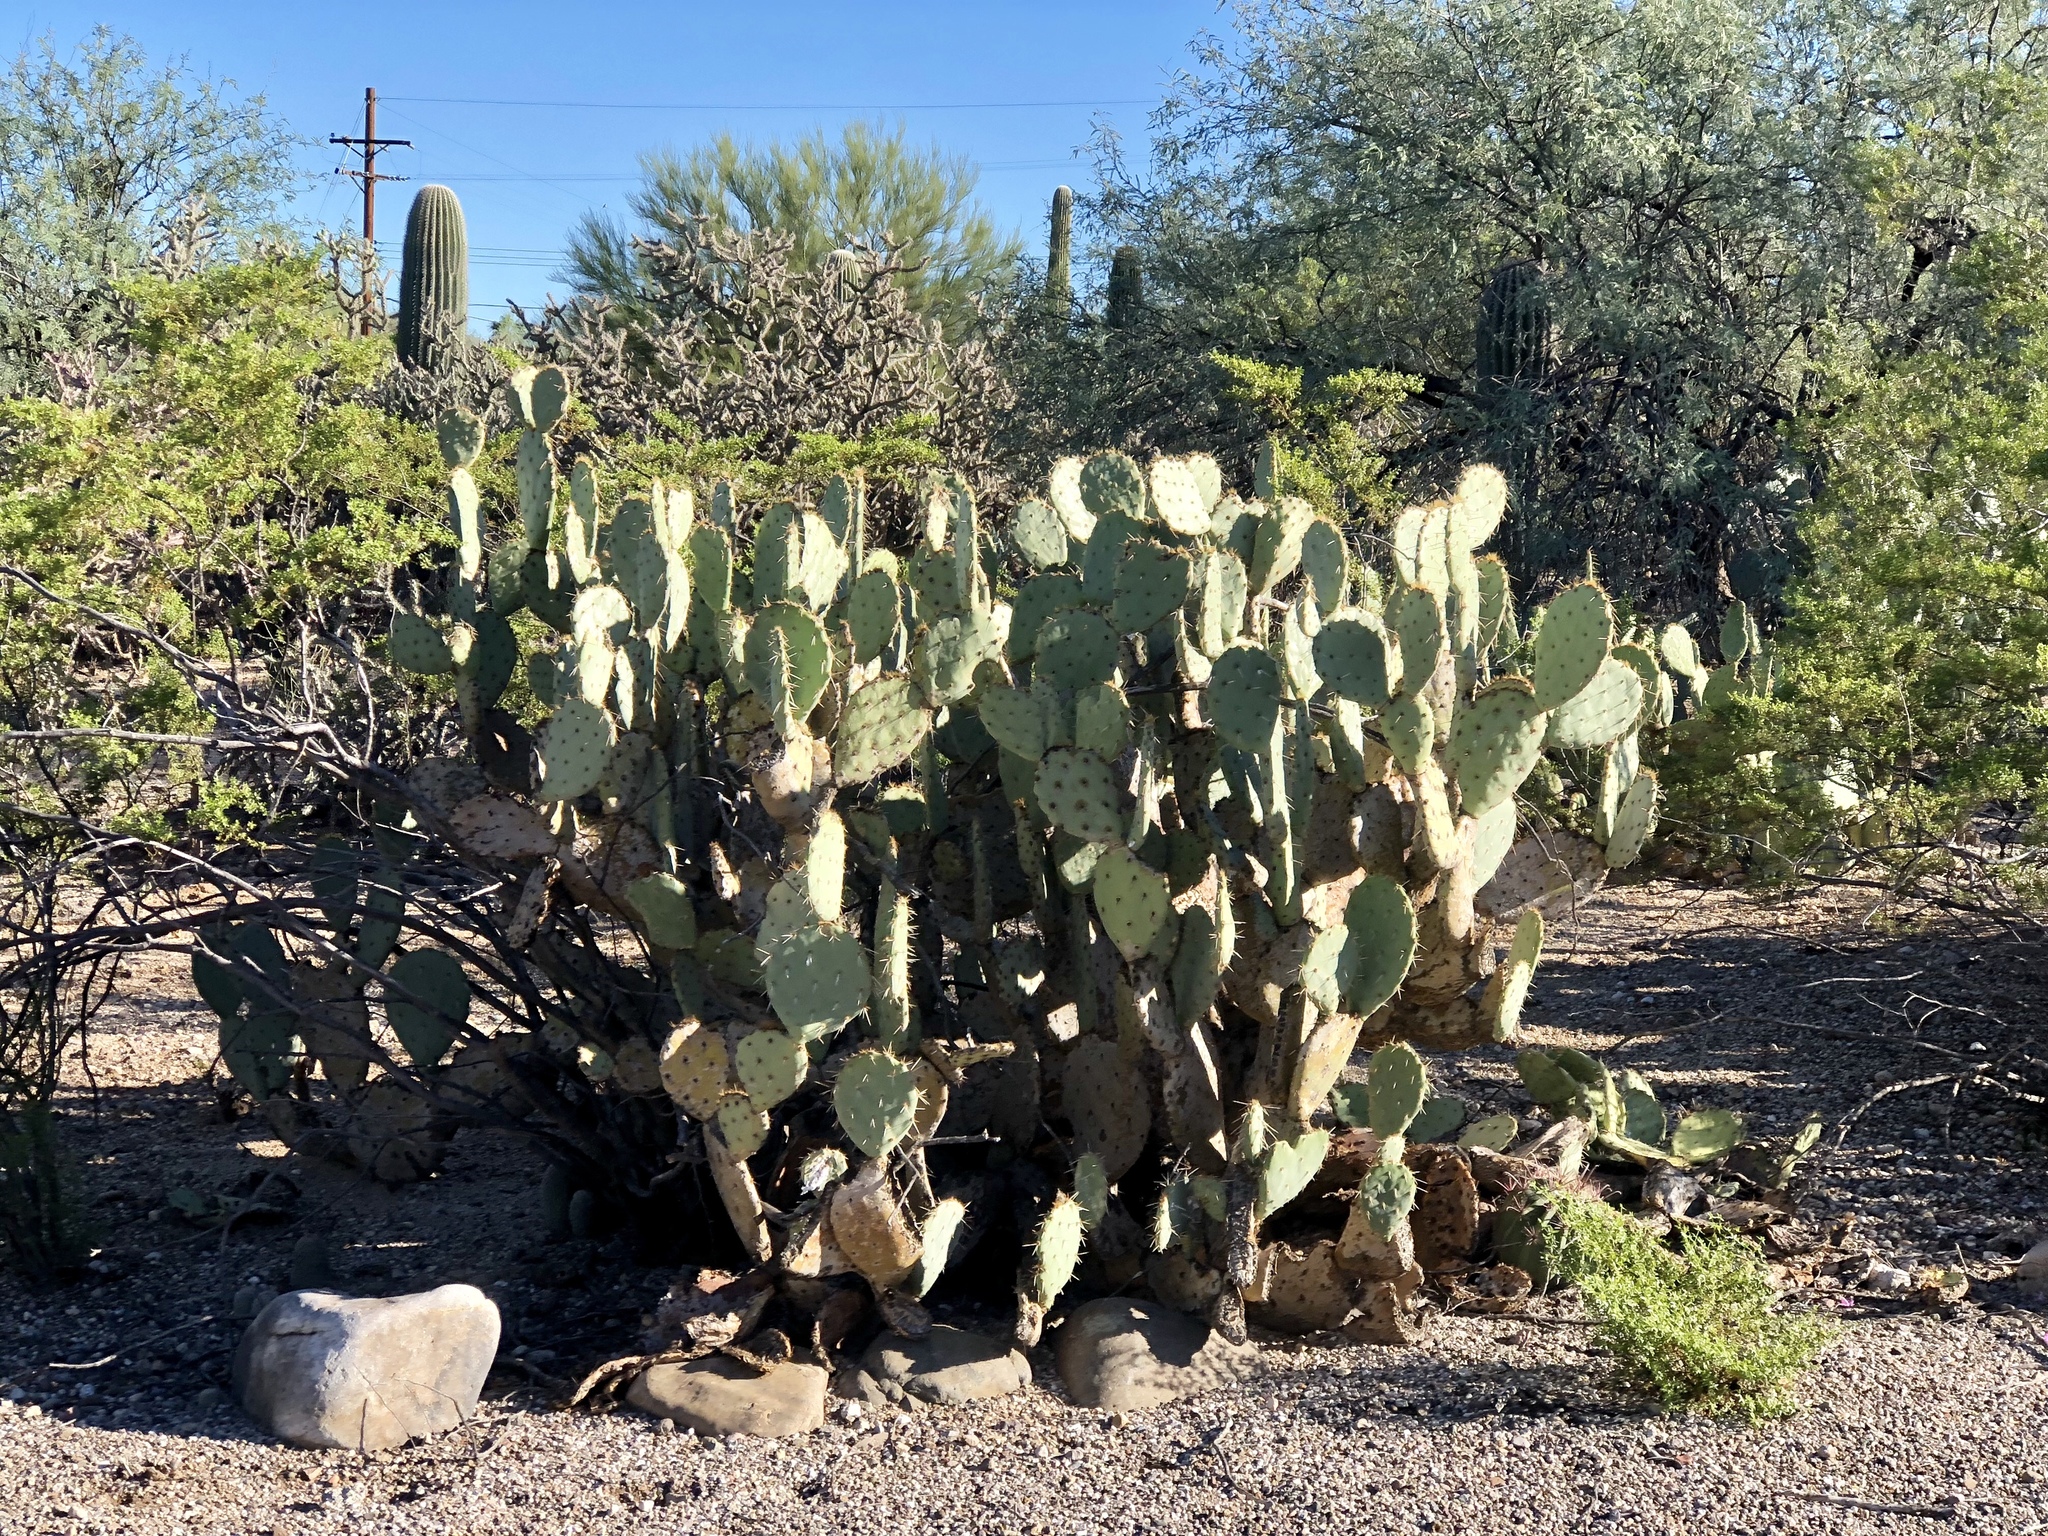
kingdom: Plantae
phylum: Tracheophyta
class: Magnoliopsida
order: Caryophyllales
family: Cactaceae
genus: Opuntia
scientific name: Opuntia engelmannii
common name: Cactus-apple
